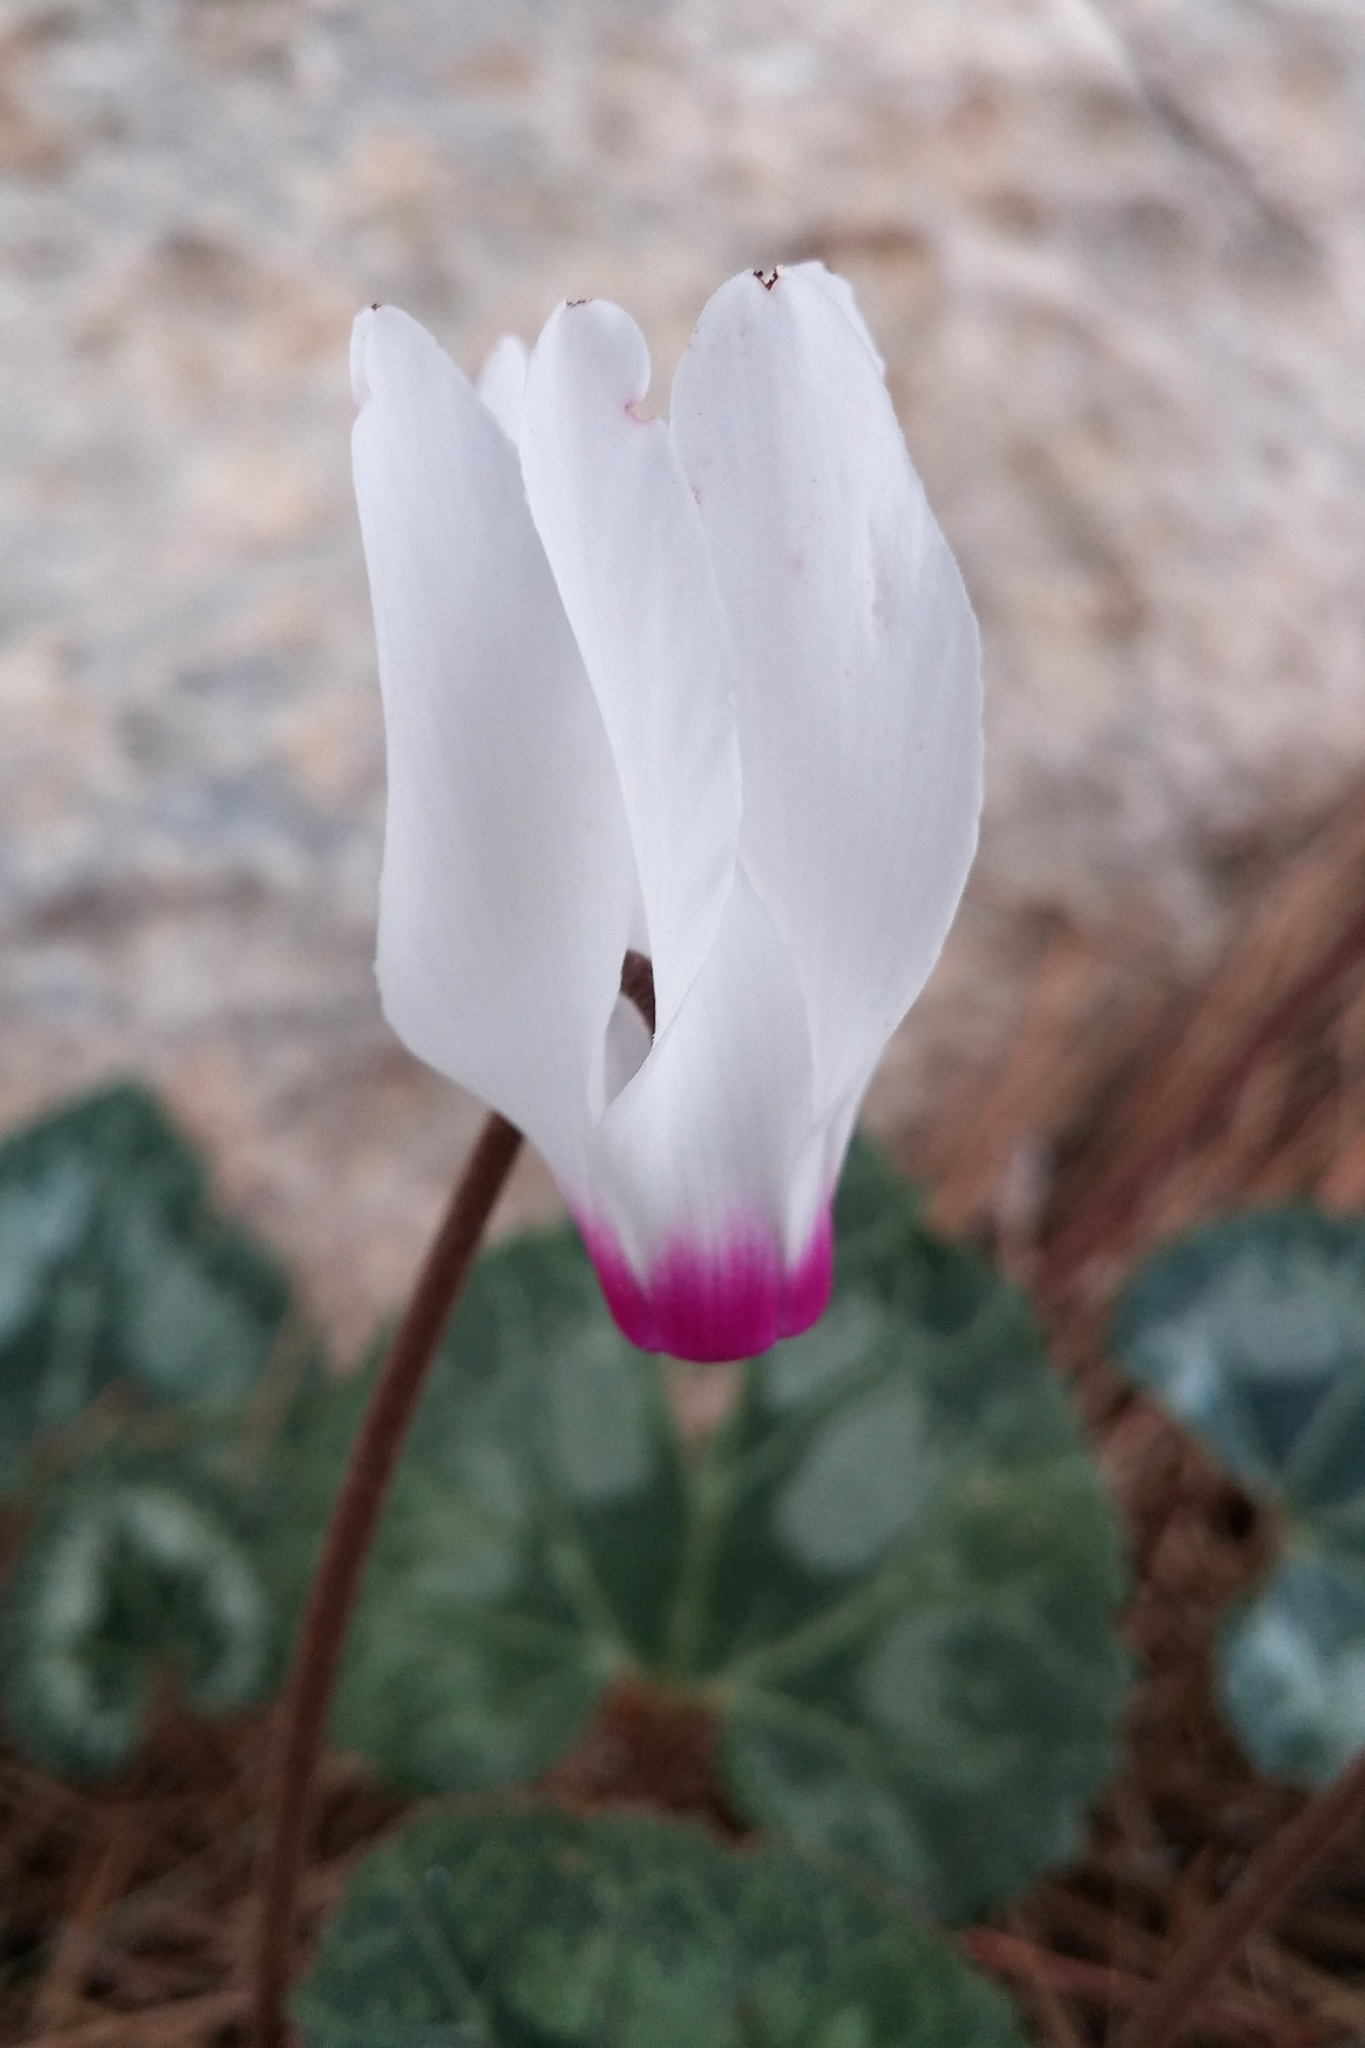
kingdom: Plantae
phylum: Tracheophyta
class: Magnoliopsida
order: Ericales
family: Primulaceae
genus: Cyclamen
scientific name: Cyclamen persicum
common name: Florist's cyclamen
